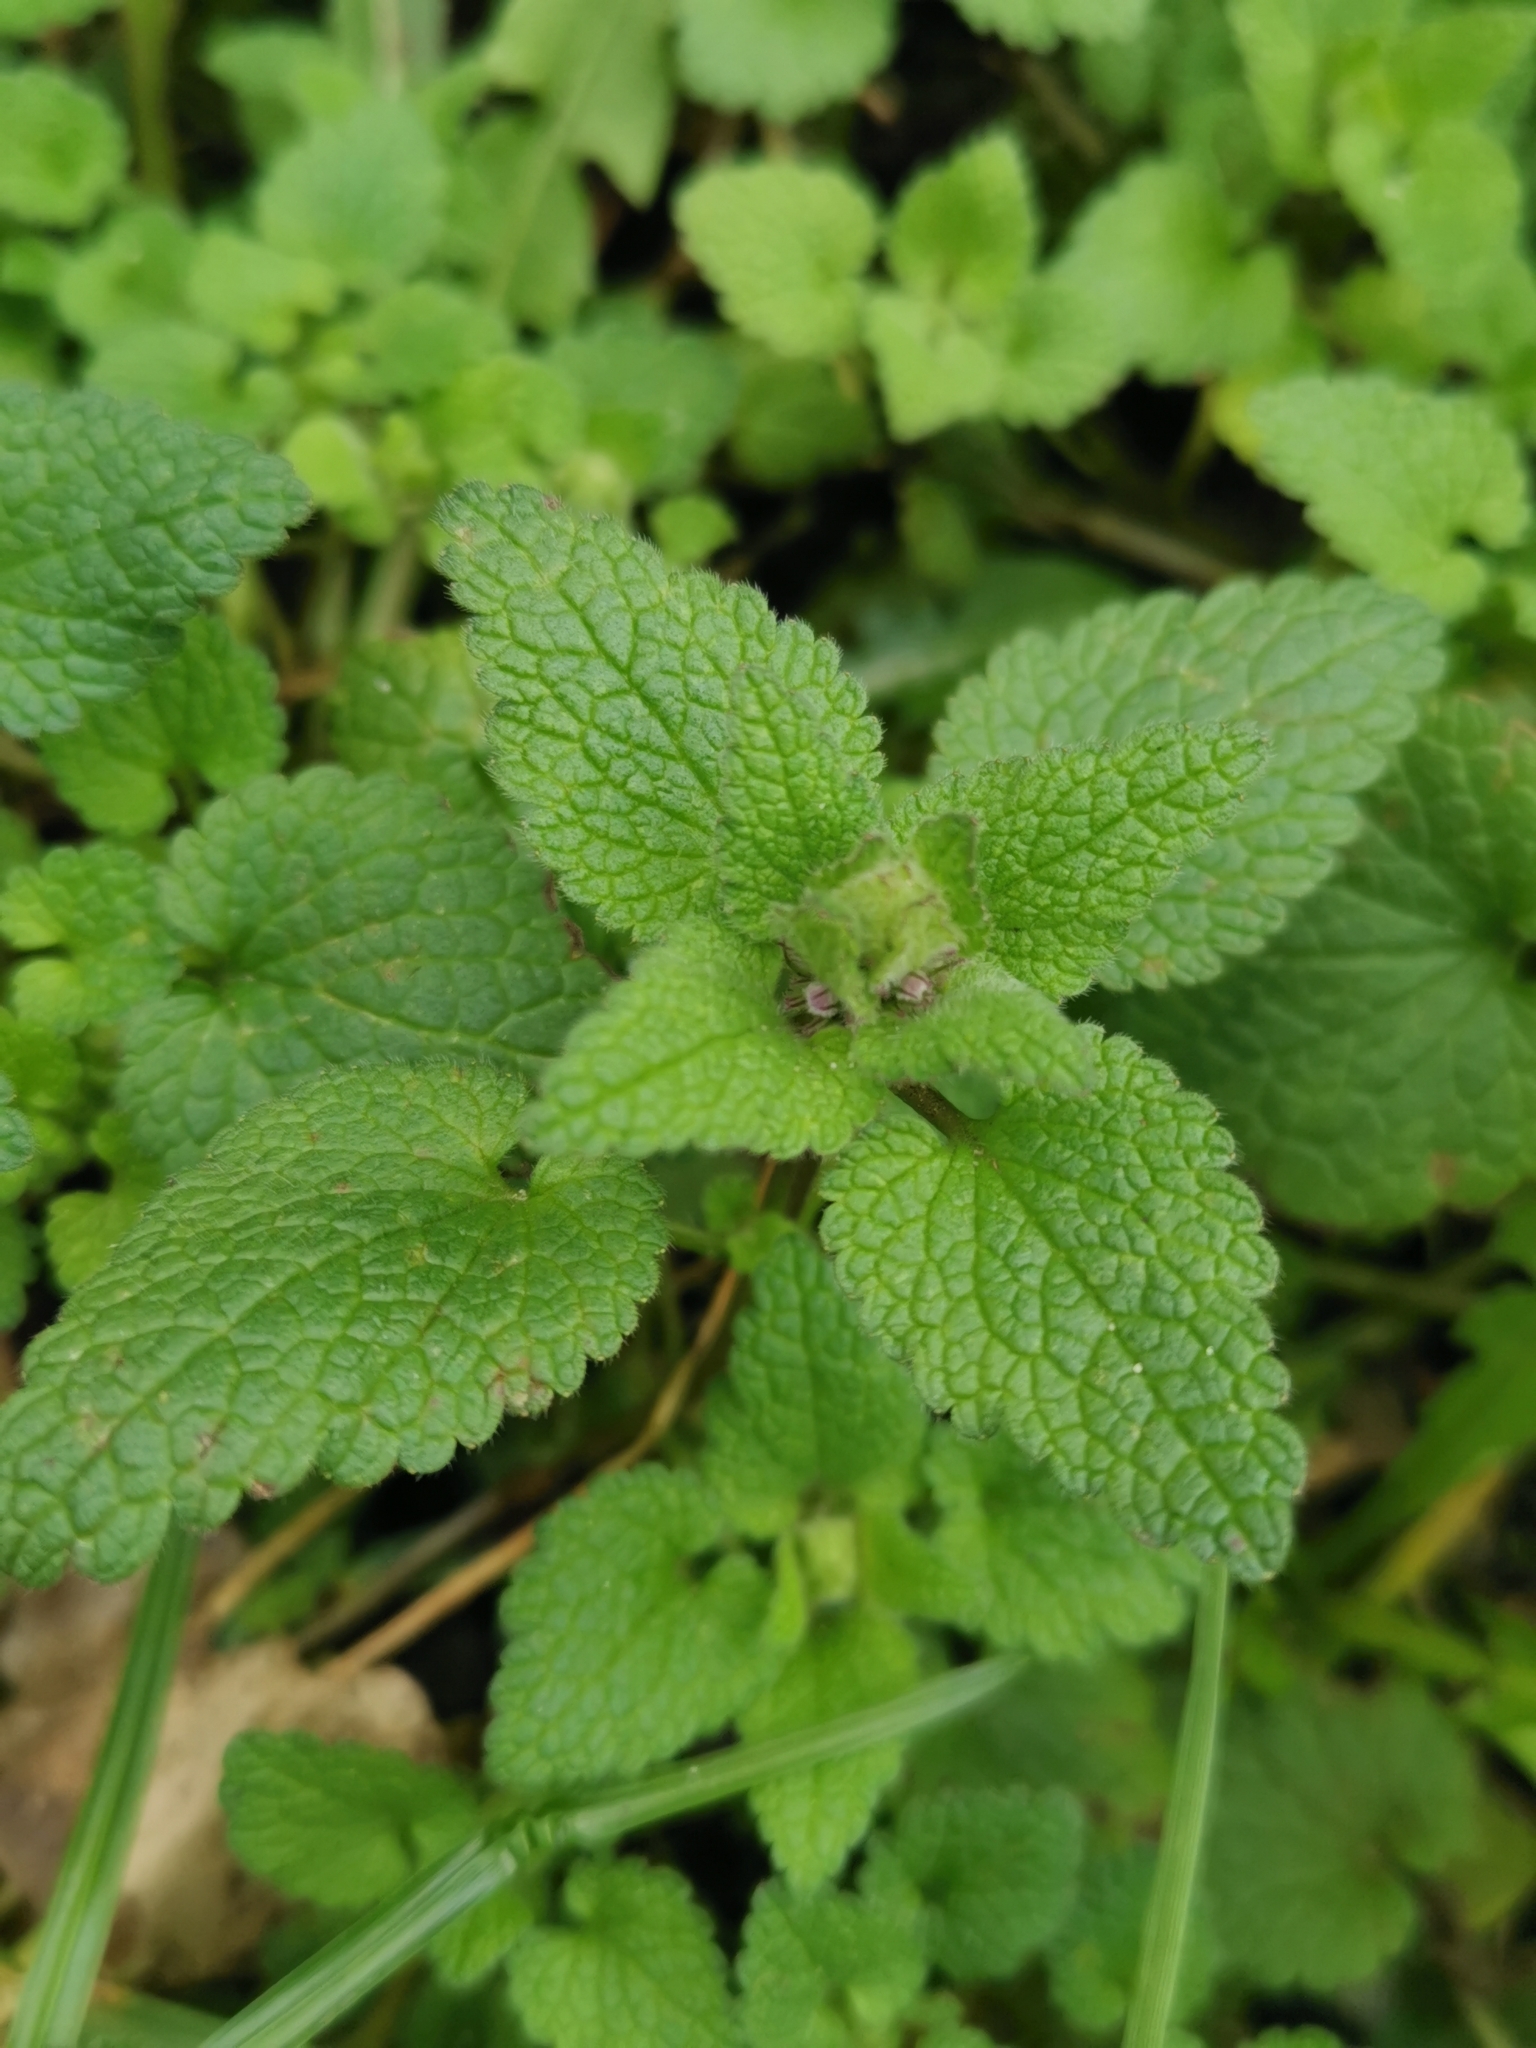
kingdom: Plantae
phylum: Tracheophyta
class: Magnoliopsida
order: Lamiales
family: Lamiaceae
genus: Lamium
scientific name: Lamium purpureum
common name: Red dead-nettle
